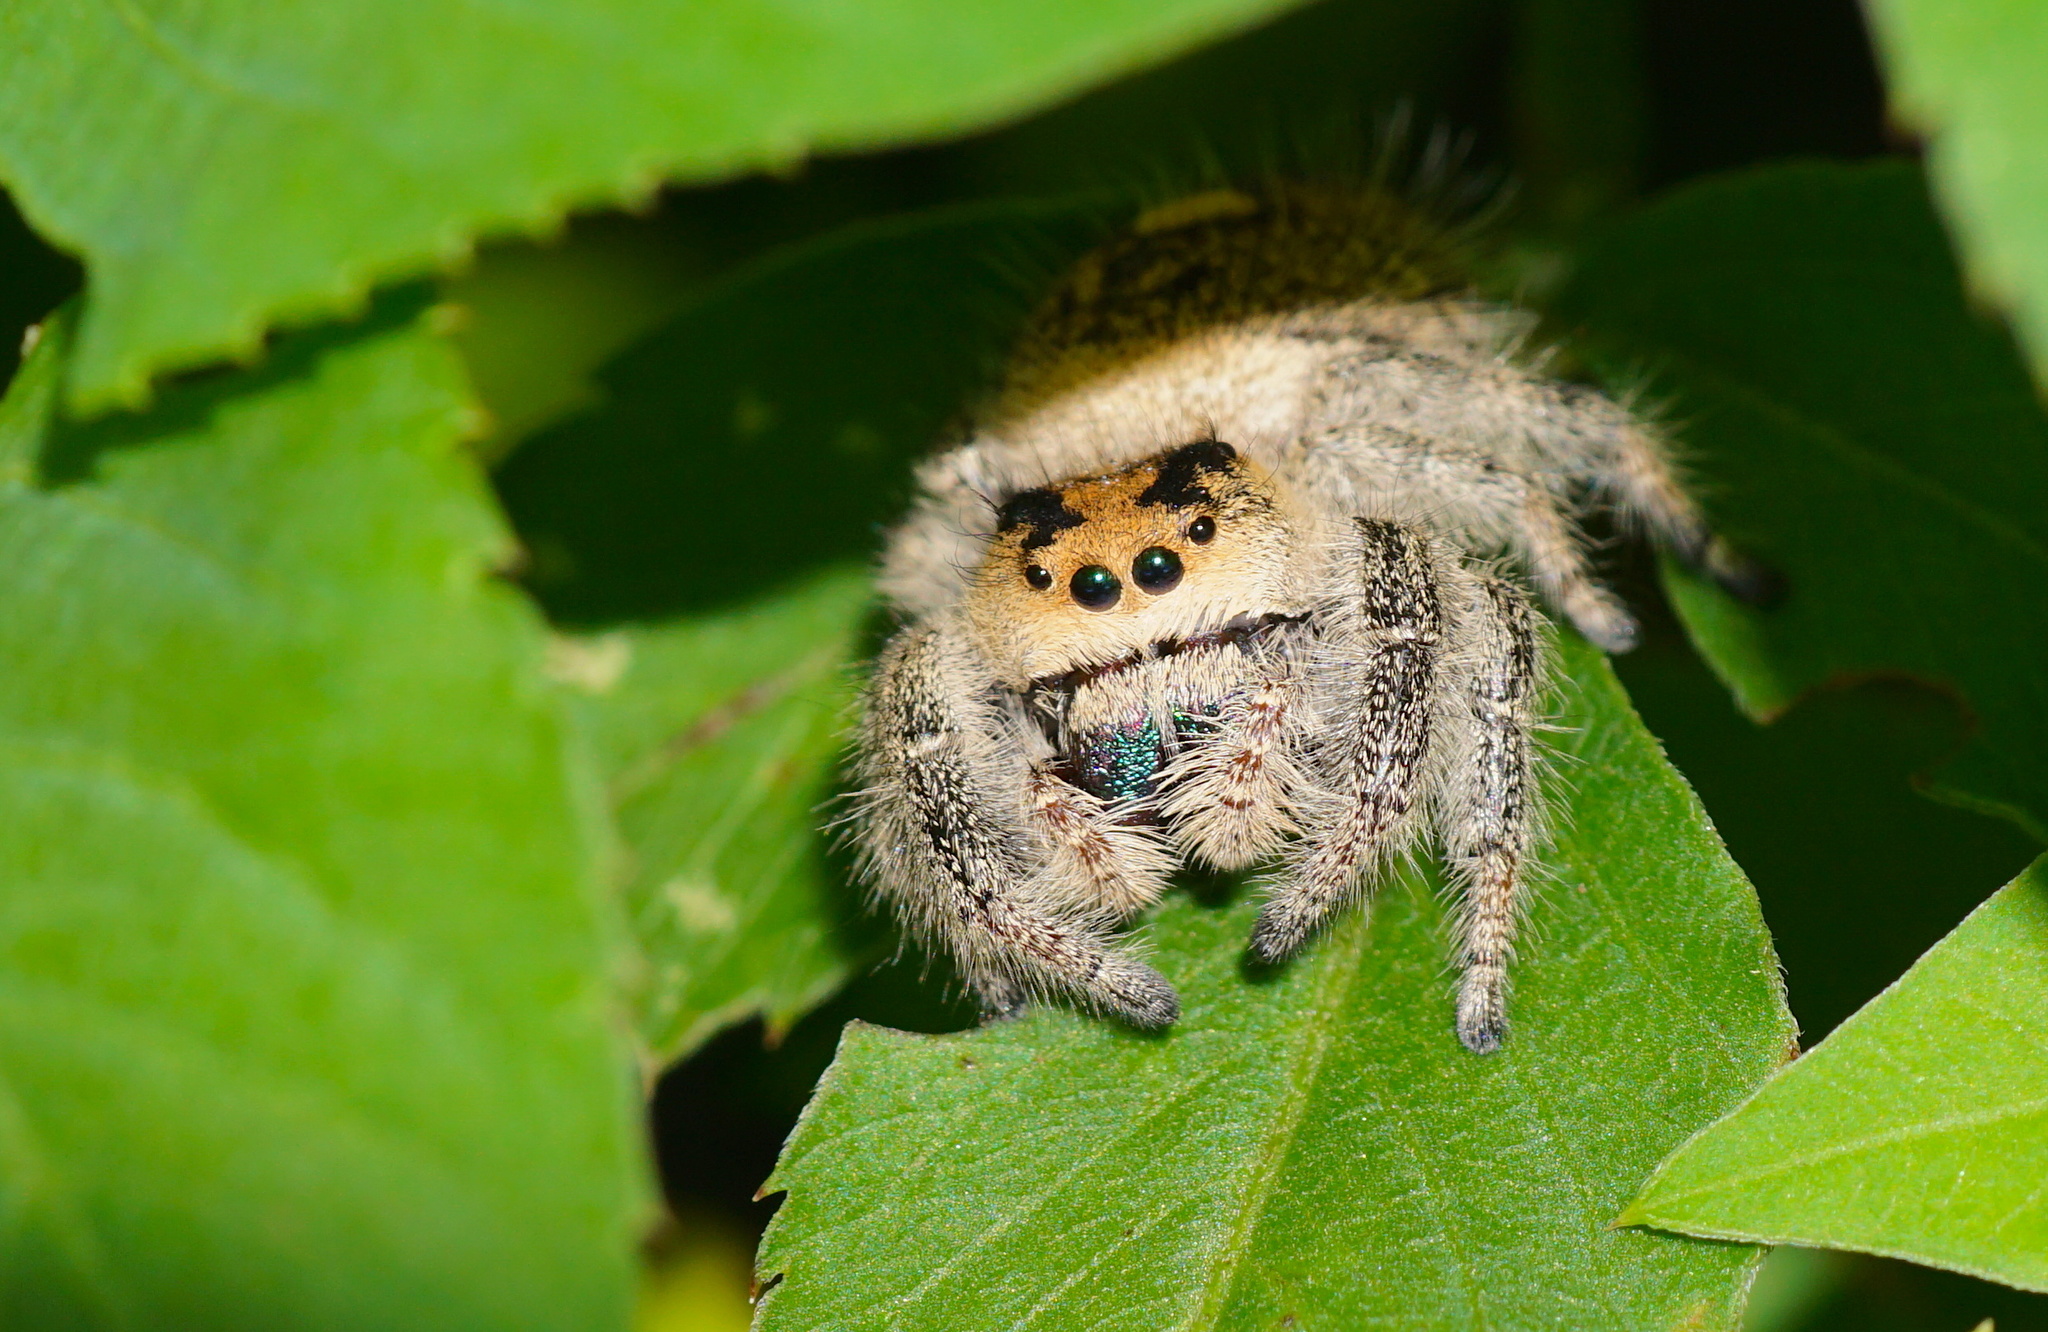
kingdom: Animalia
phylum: Arthropoda
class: Arachnida
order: Araneae
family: Salticidae
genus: Phidippus
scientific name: Phidippus regius
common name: Regal jumper
